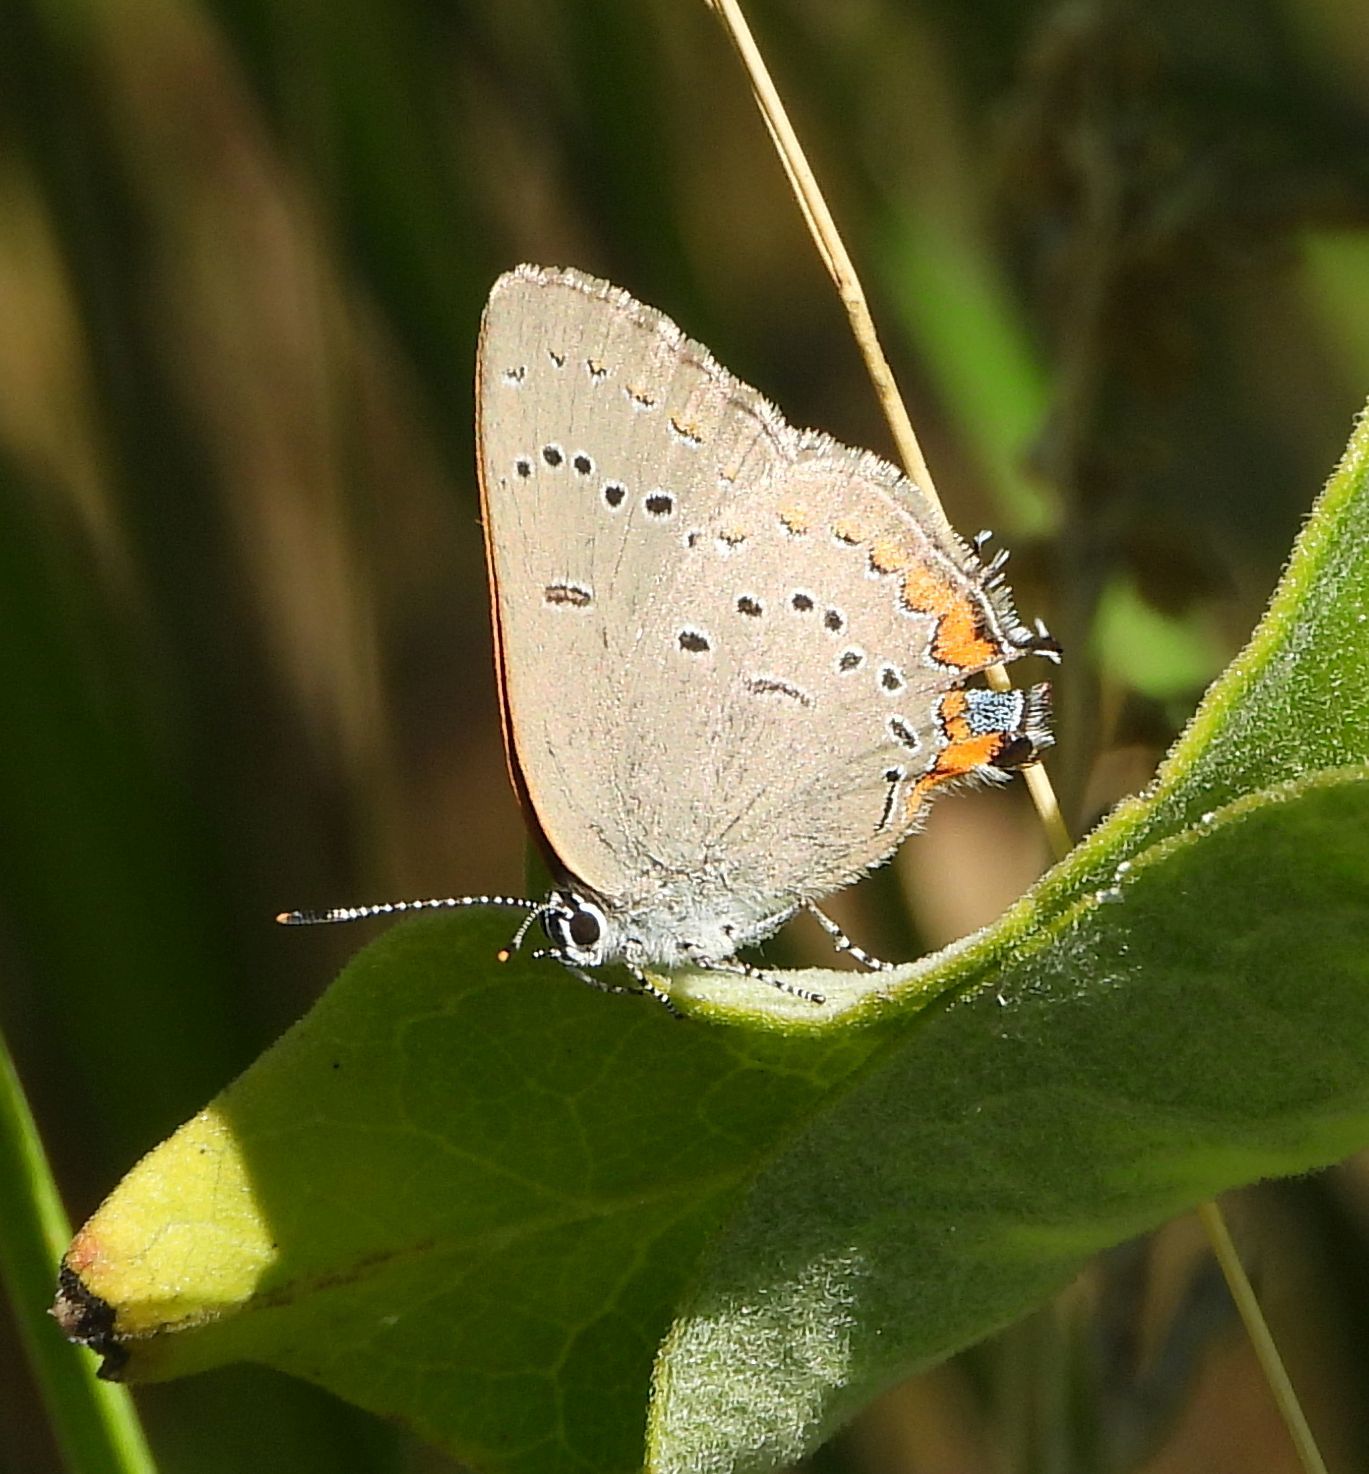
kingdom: Animalia
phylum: Arthropoda
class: Insecta
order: Lepidoptera
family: Lycaenidae
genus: Strymon
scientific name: Strymon acadica
